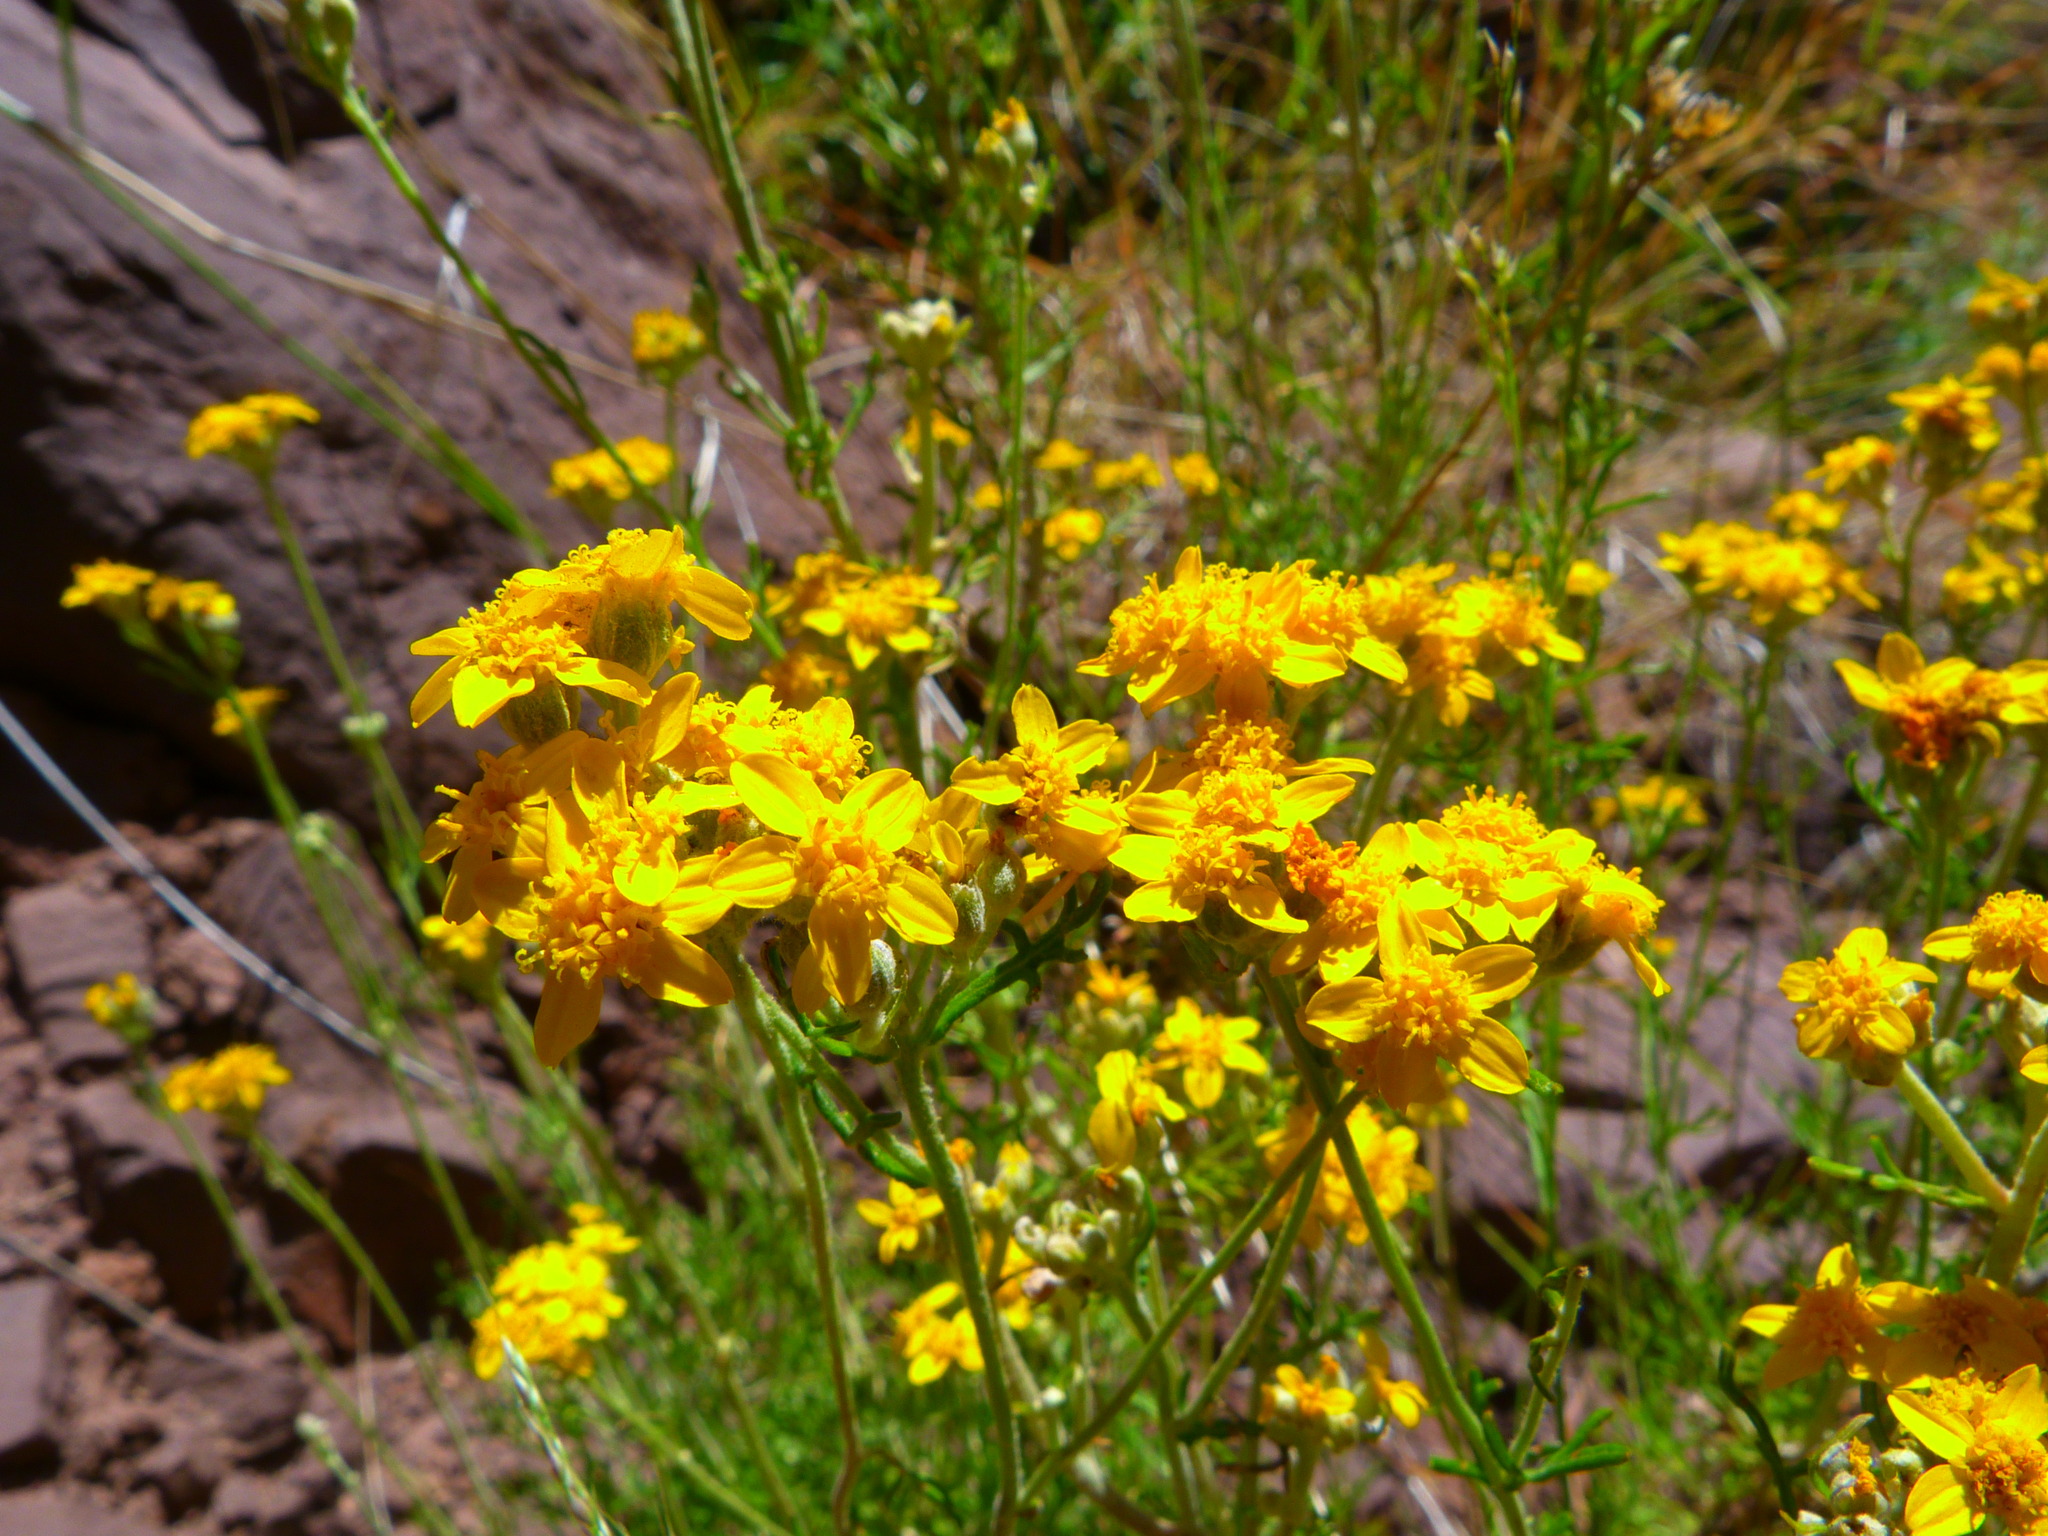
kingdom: Plantae
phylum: Tracheophyta
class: Magnoliopsida
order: Asterales
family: Asteraceae
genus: Eriophyllum
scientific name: Eriophyllum confertiflorum
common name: Golden-yarrow
